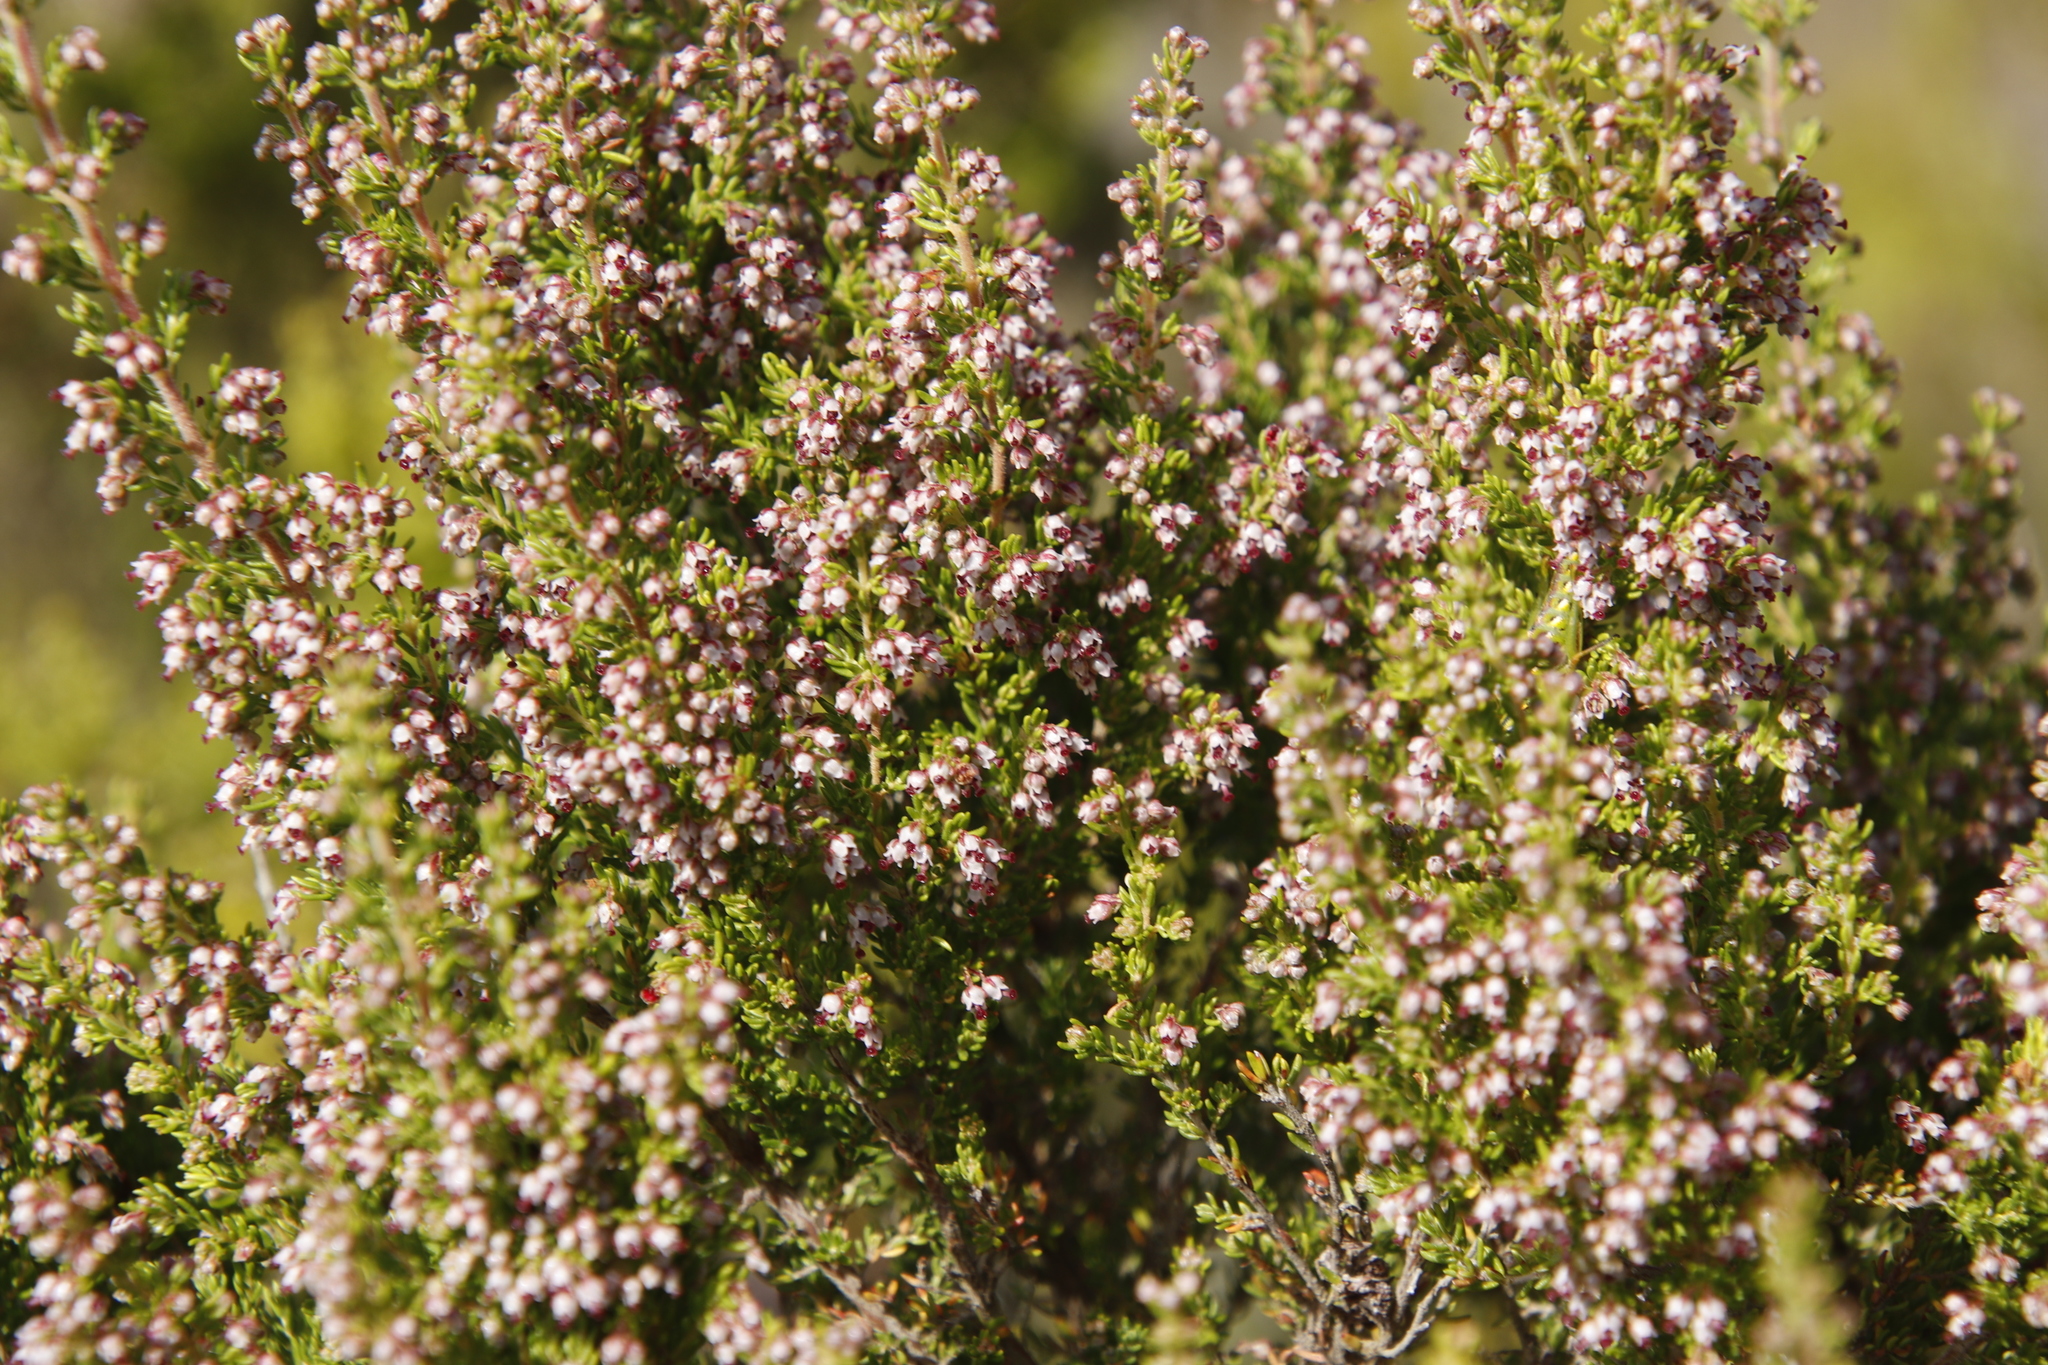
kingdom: Plantae
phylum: Tracheophyta
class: Magnoliopsida
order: Ericales
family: Ericaceae
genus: Erica
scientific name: Erica hispidula
